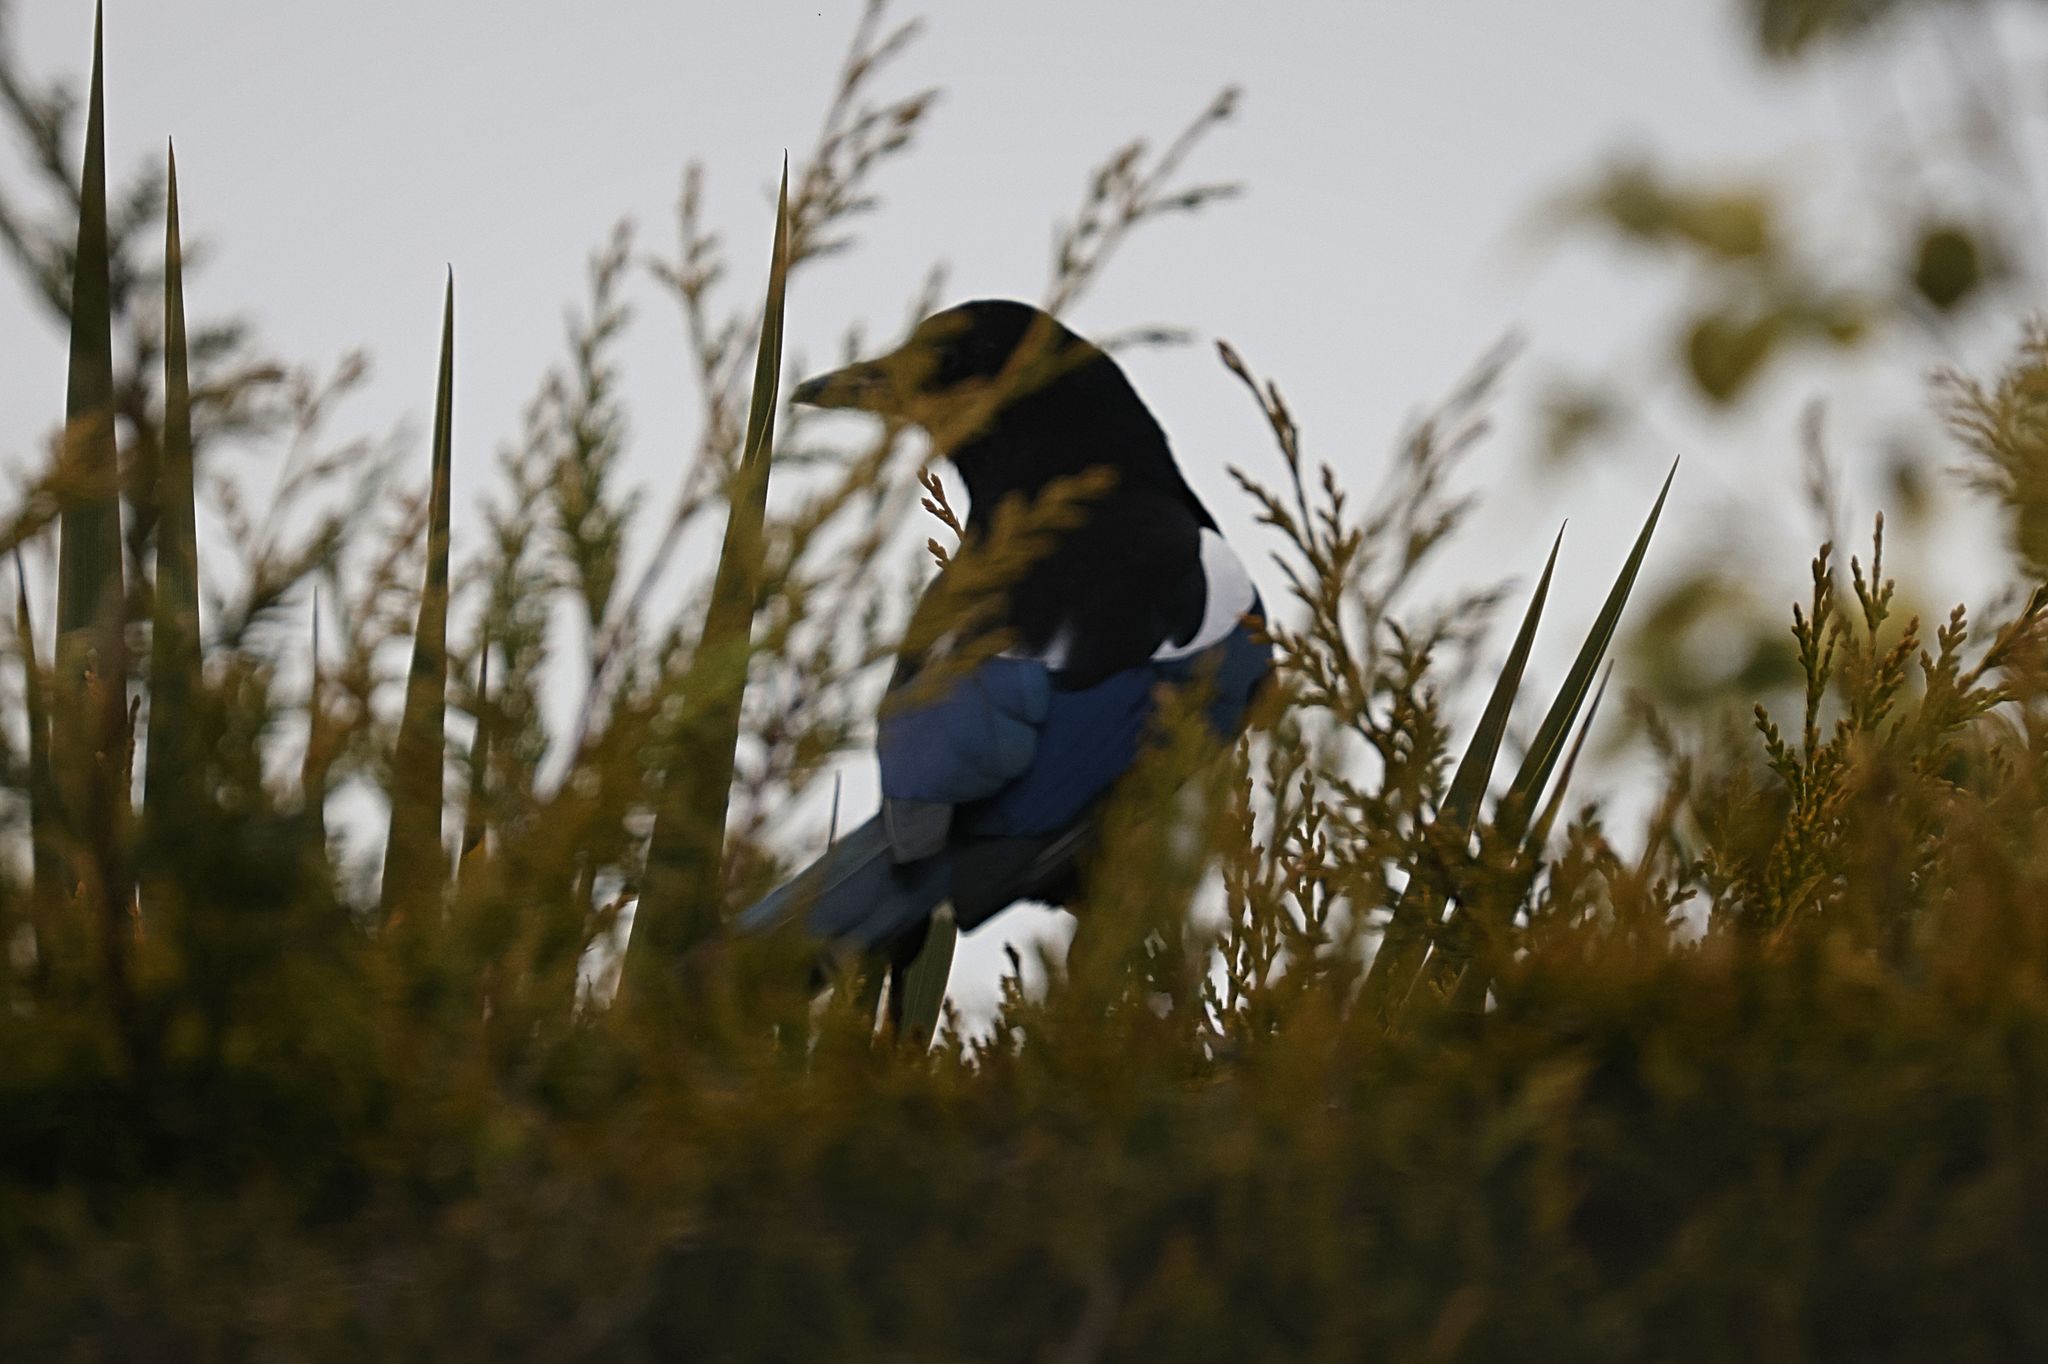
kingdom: Animalia
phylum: Chordata
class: Aves
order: Passeriformes
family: Corvidae
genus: Pica
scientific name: Pica pica
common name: Eurasian magpie
